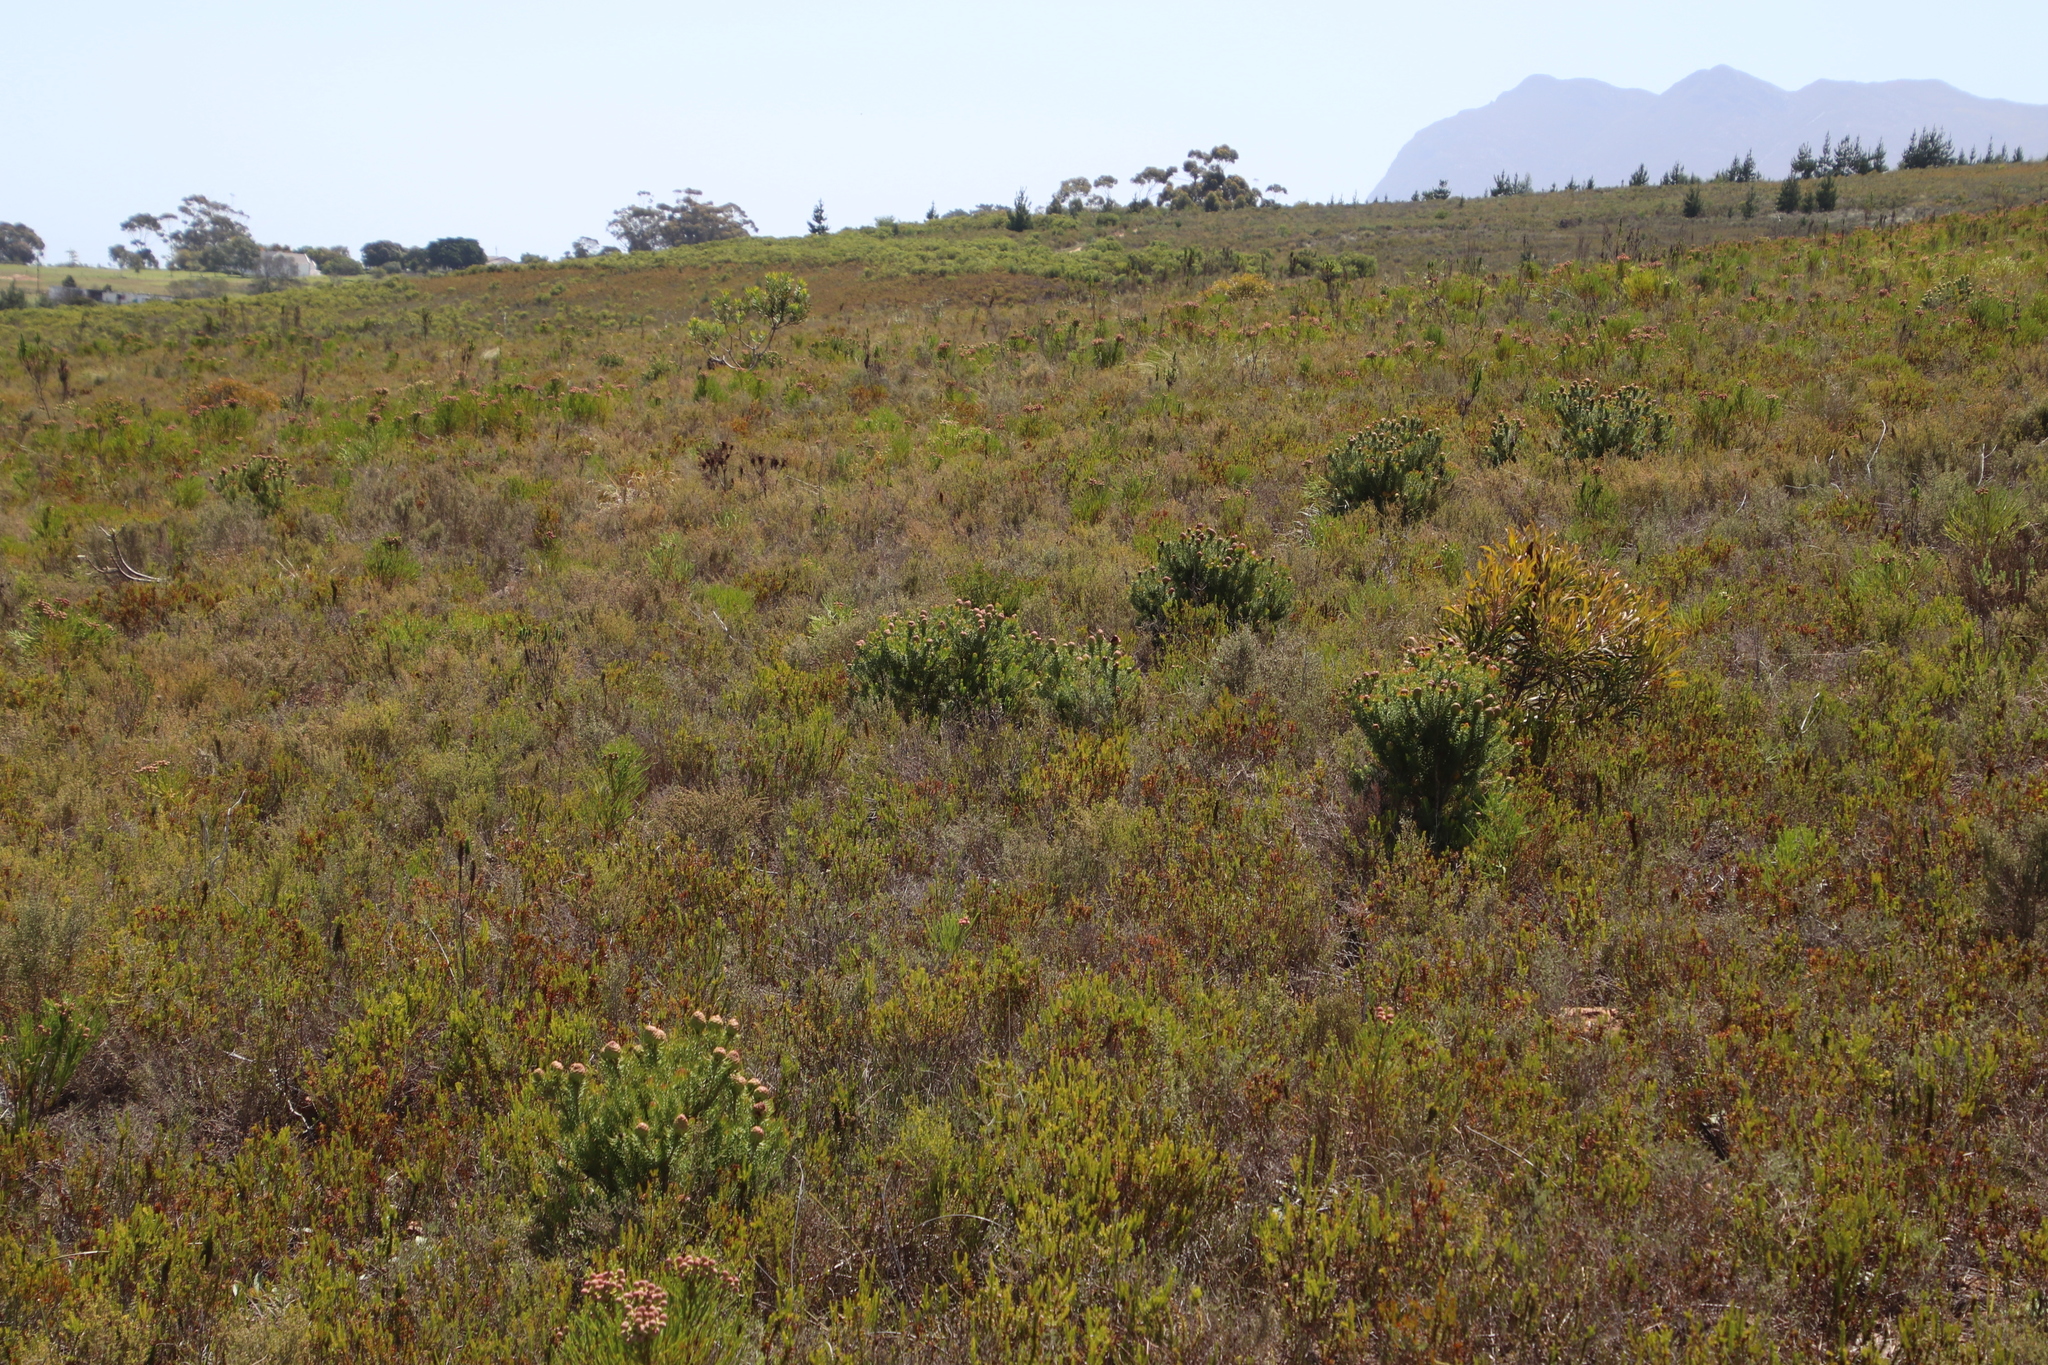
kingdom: Plantae
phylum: Tracheophyta
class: Magnoliopsida
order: Proteales
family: Proteaceae
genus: Leucadendron
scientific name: Leucadendron teretifolium
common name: Needle-leaf conebush
